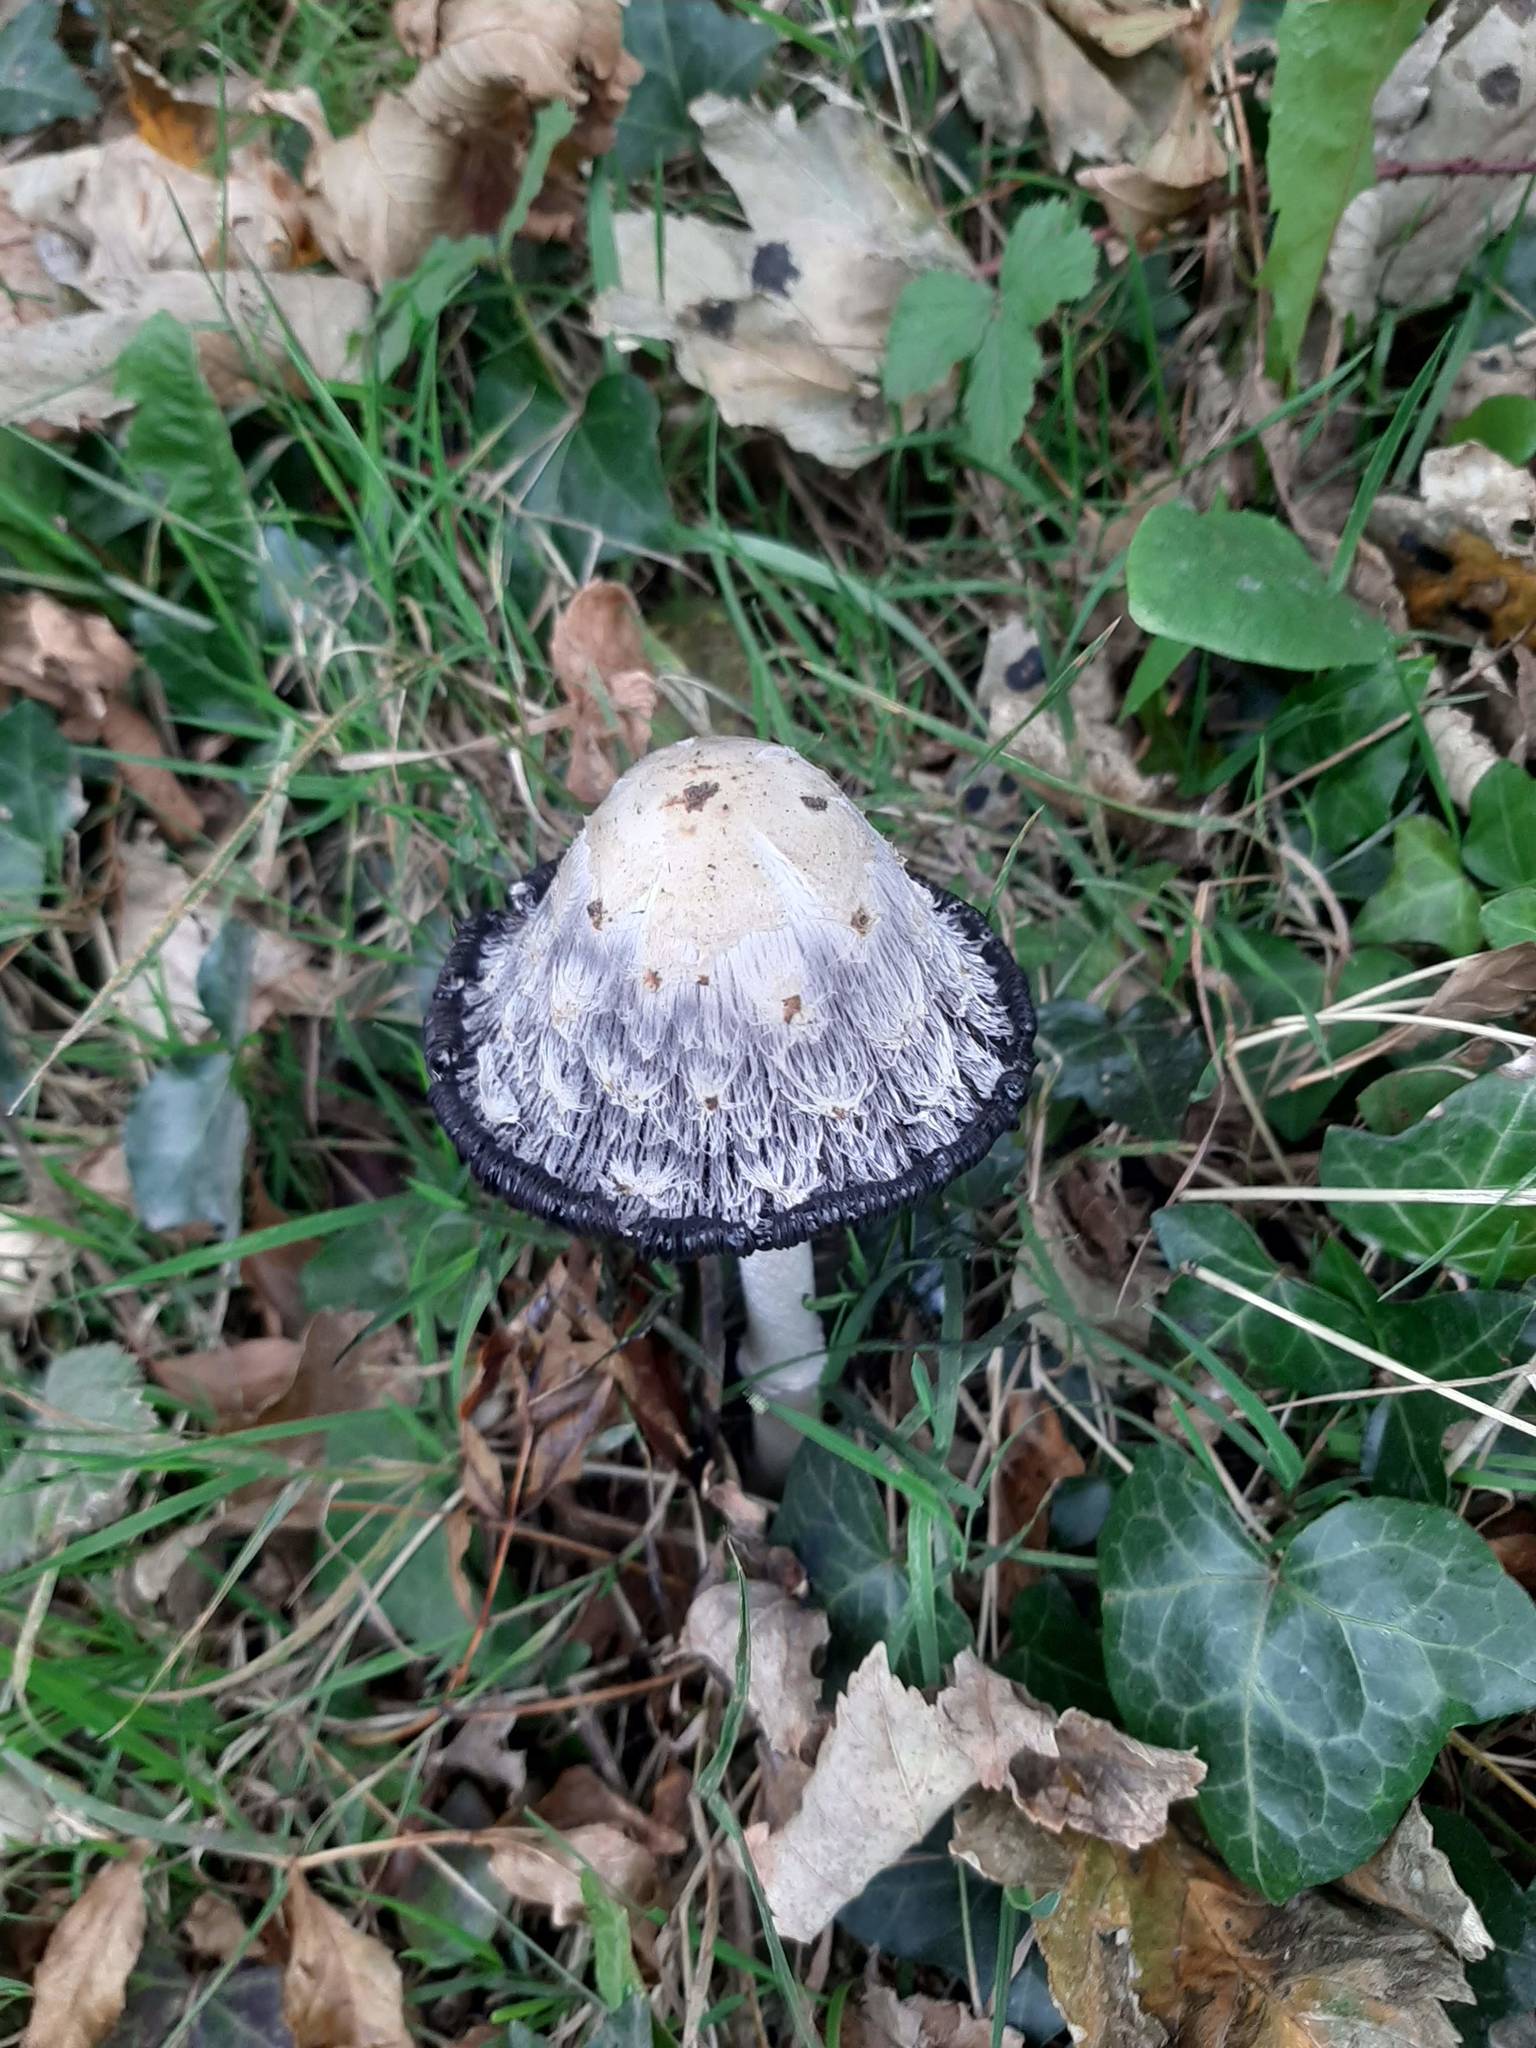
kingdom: Fungi
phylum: Basidiomycota
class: Agaricomycetes
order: Agaricales
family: Agaricaceae
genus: Coprinus
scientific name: Coprinus comatus
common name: Lawyer's wig
